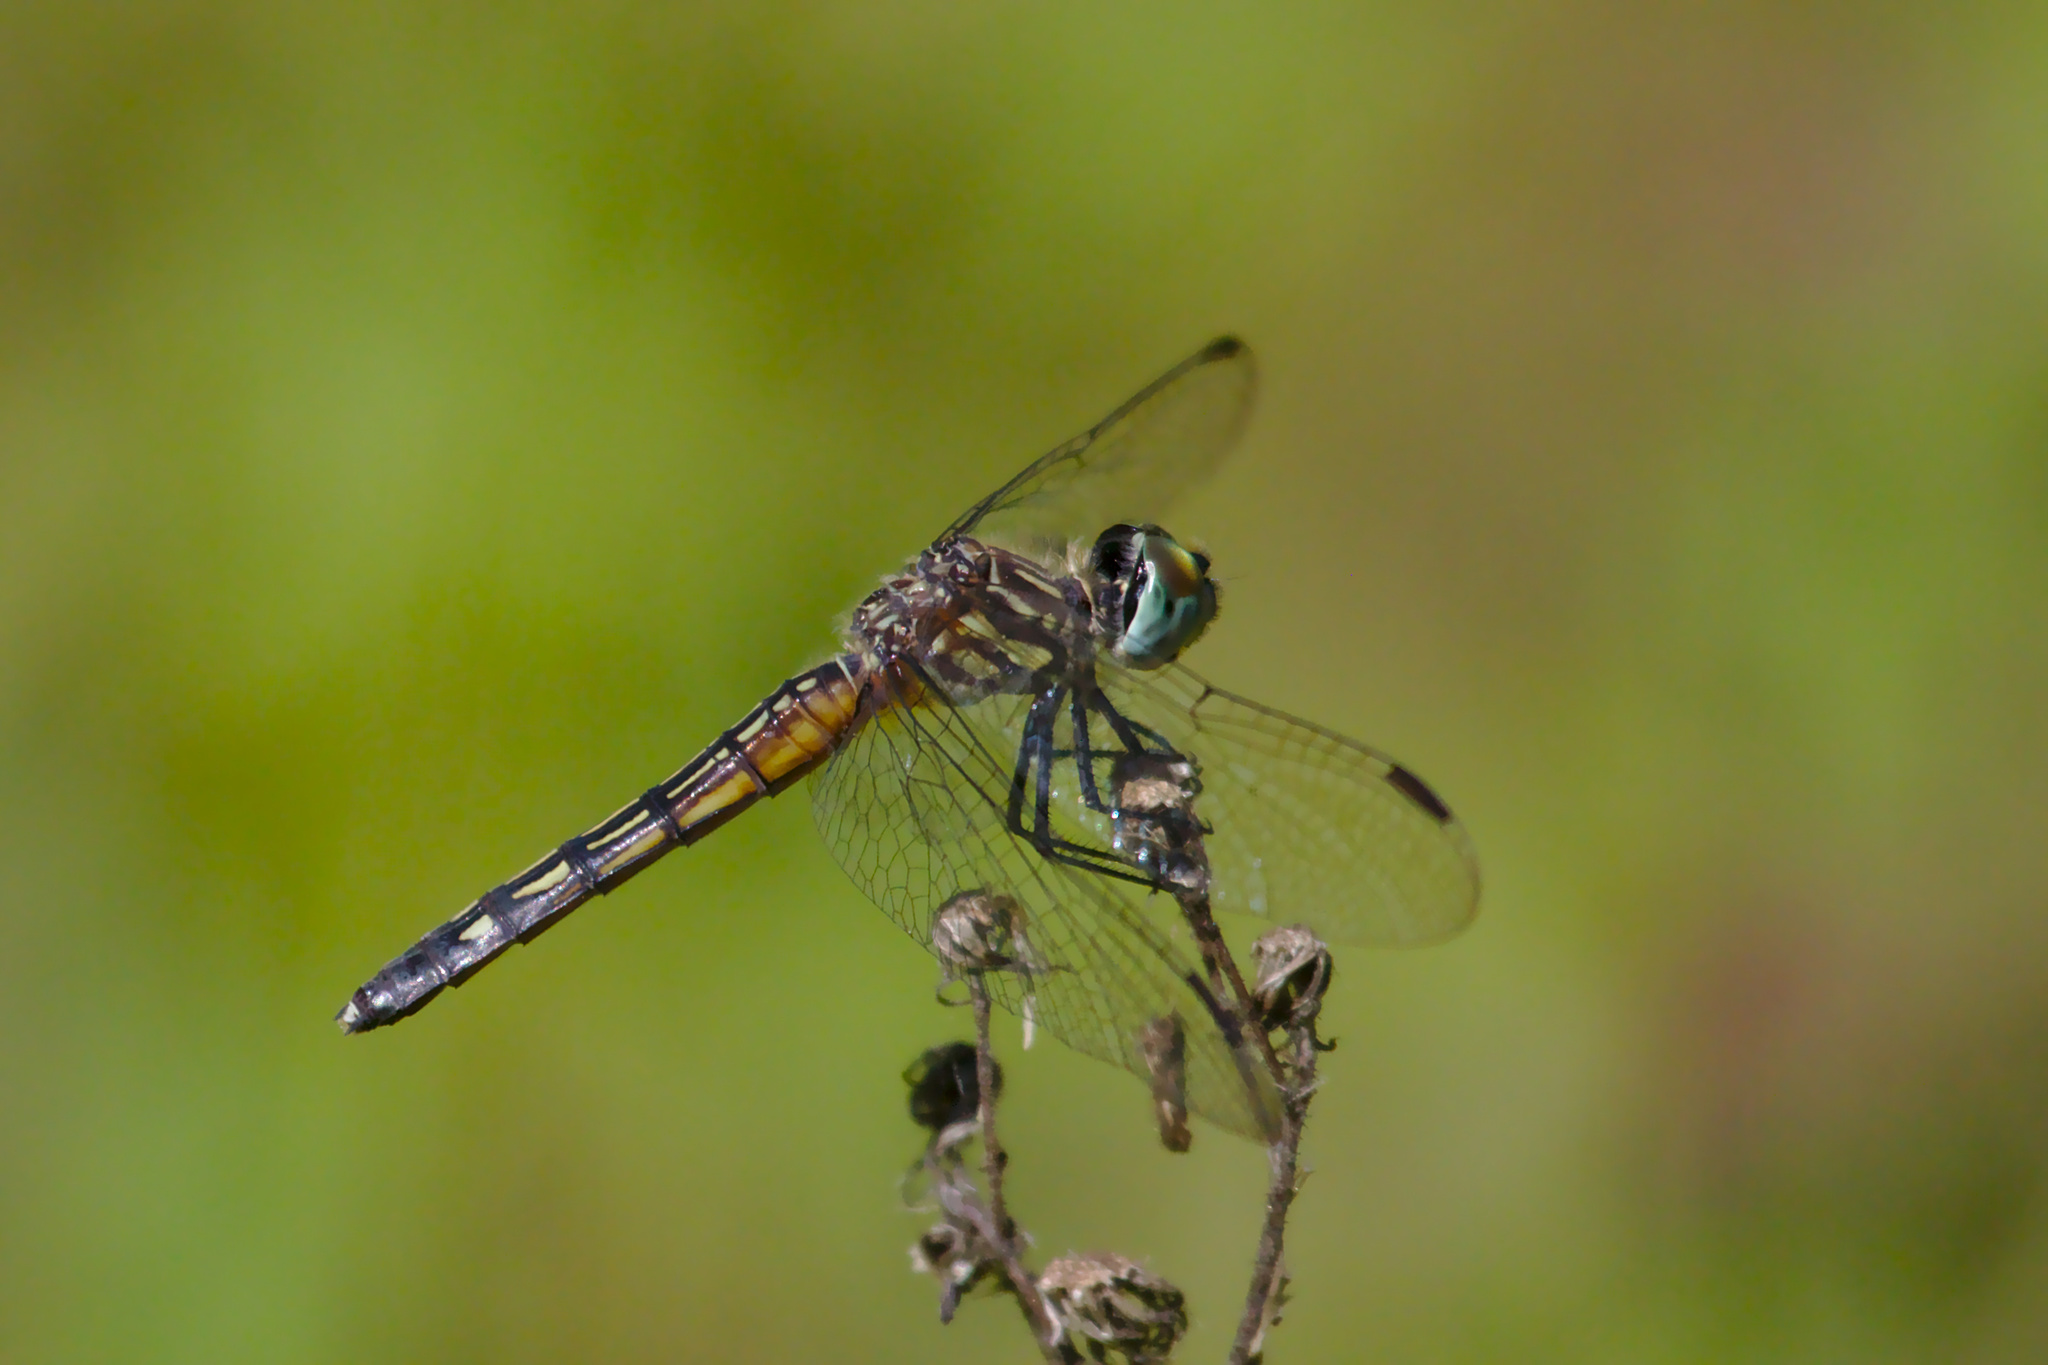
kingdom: Animalia
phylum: Arthropoda
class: Insecta
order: Odonata
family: Libellulidae
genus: Pachydiplax
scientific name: Pachydiplax longipennis
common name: Blue dasher
